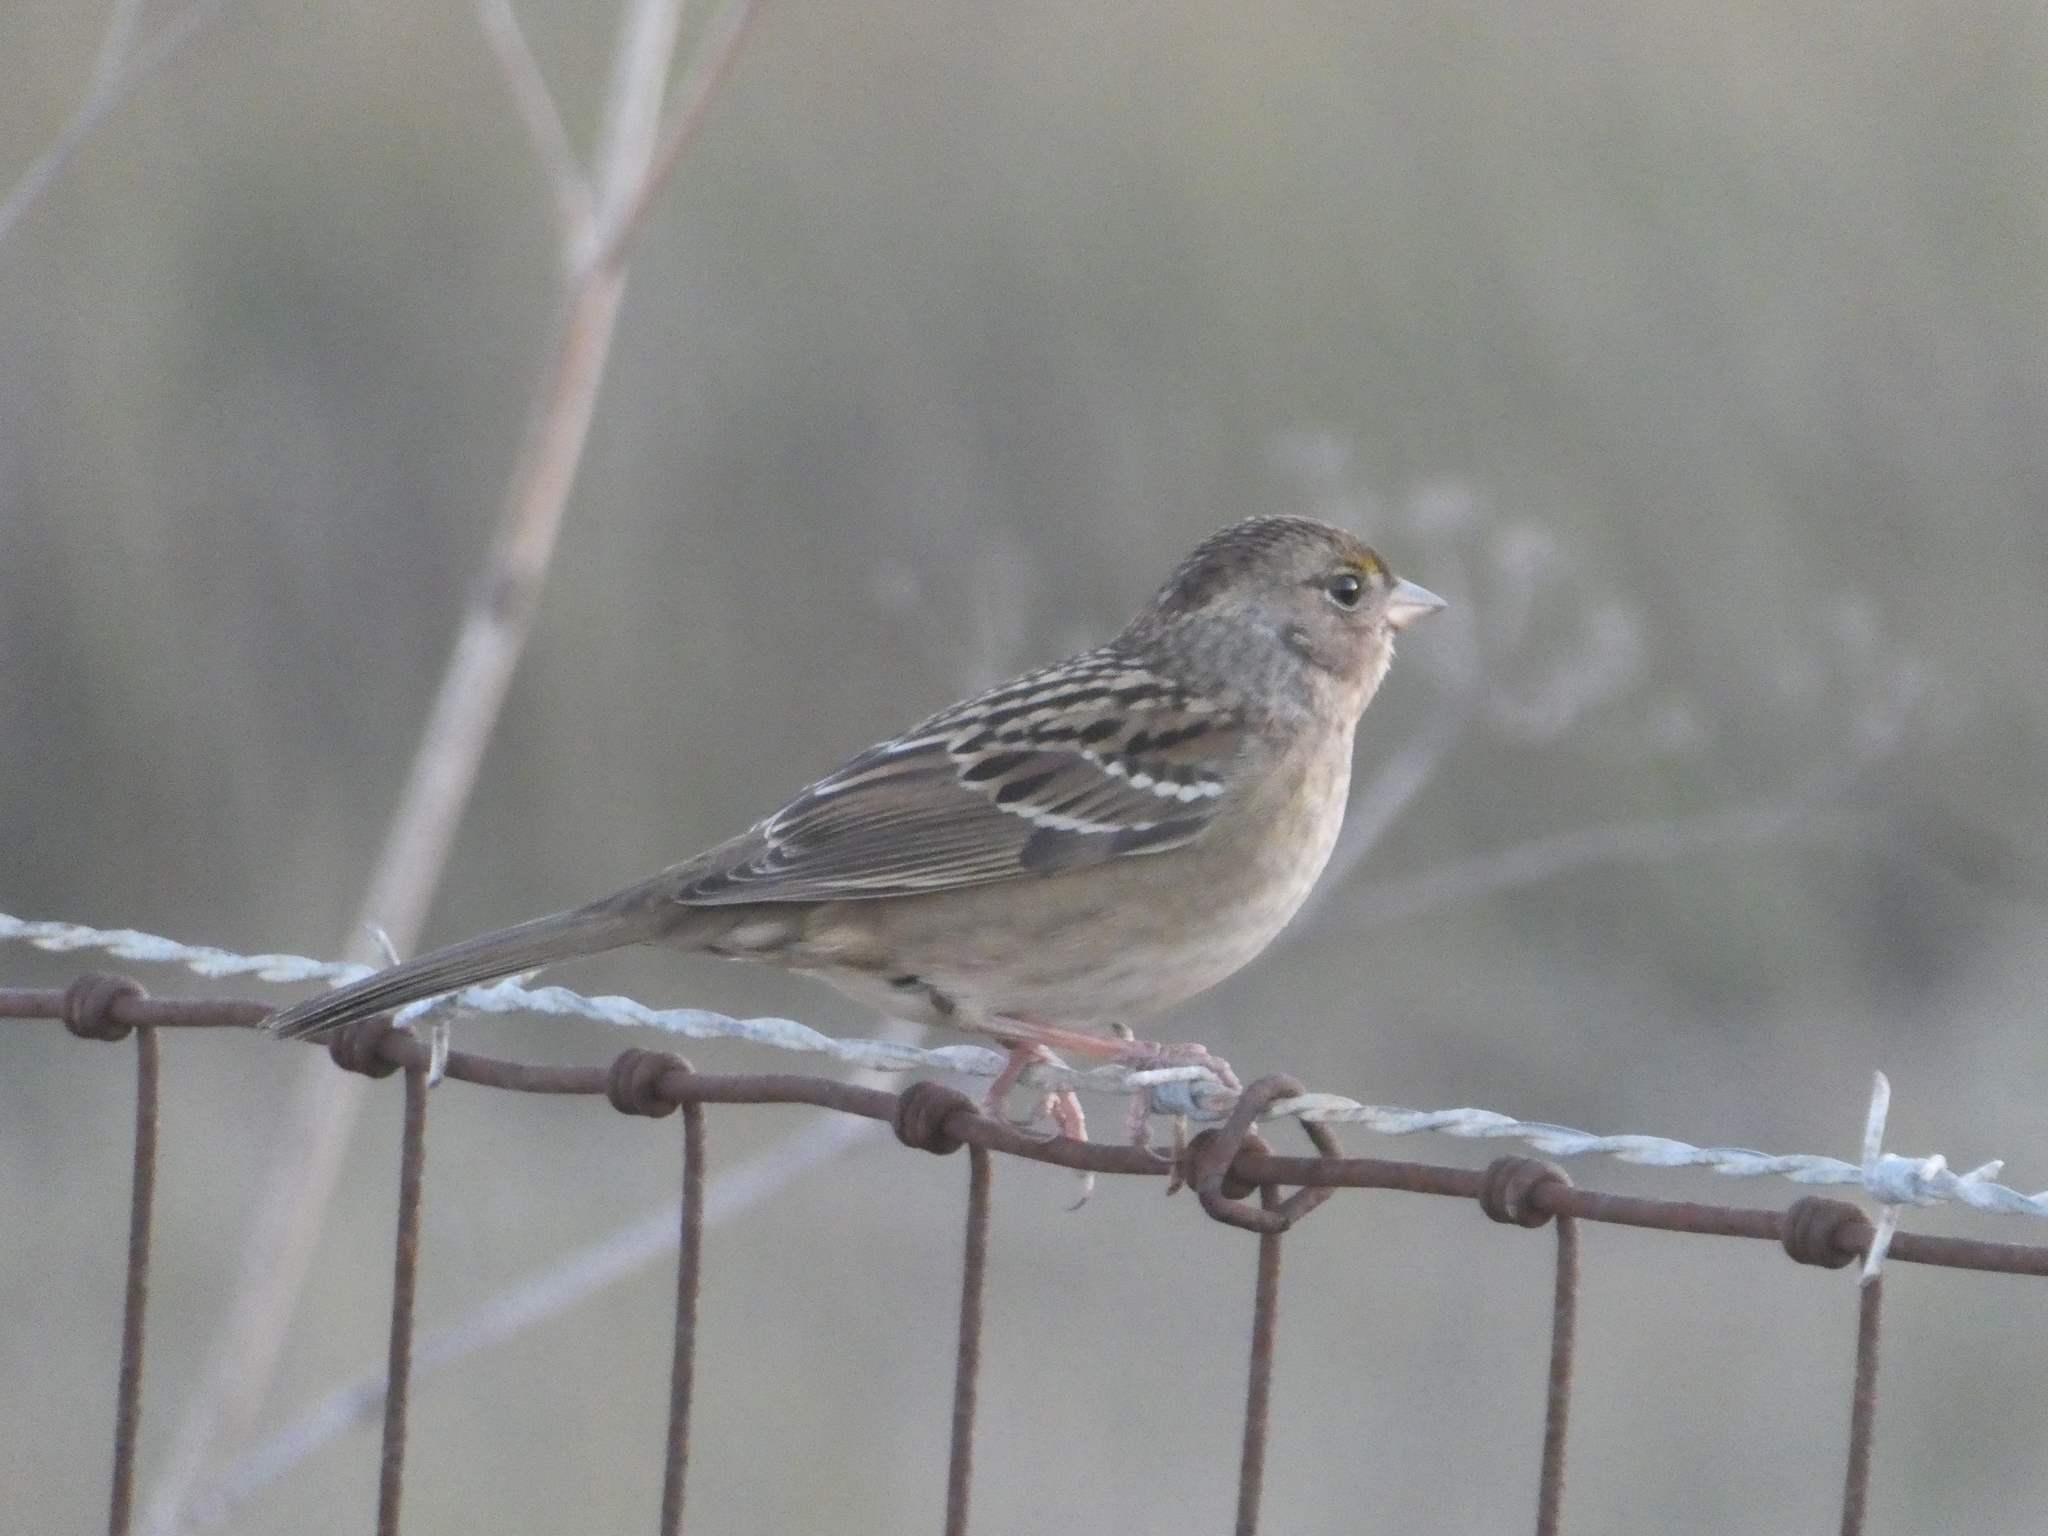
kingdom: Animalia
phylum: Chordata
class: Aves
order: Passeriformes
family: Passerellidae
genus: Zonotrichia
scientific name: Zonotrichia atricapilla
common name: Golden-crowned sparrow
